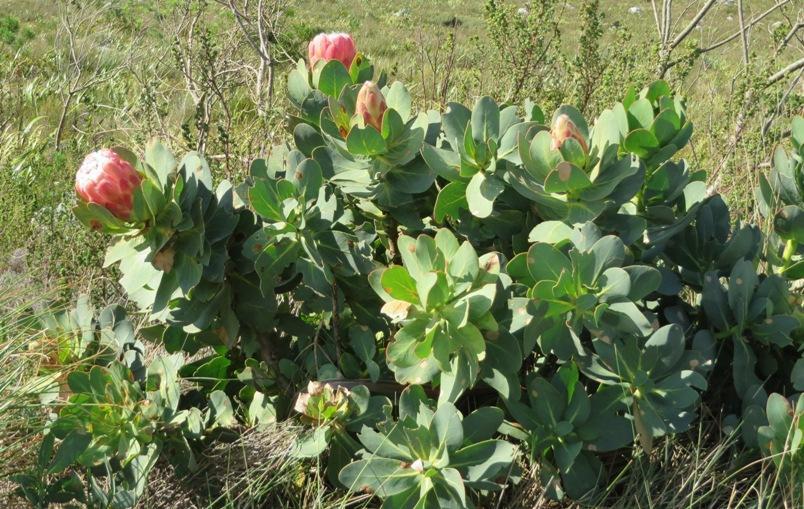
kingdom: Plantae
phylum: Tracheophyta
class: Magnoliopsida
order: Proteales
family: Proteaceae
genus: Protea
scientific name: Protea grandiceps
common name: Red sugarbush
